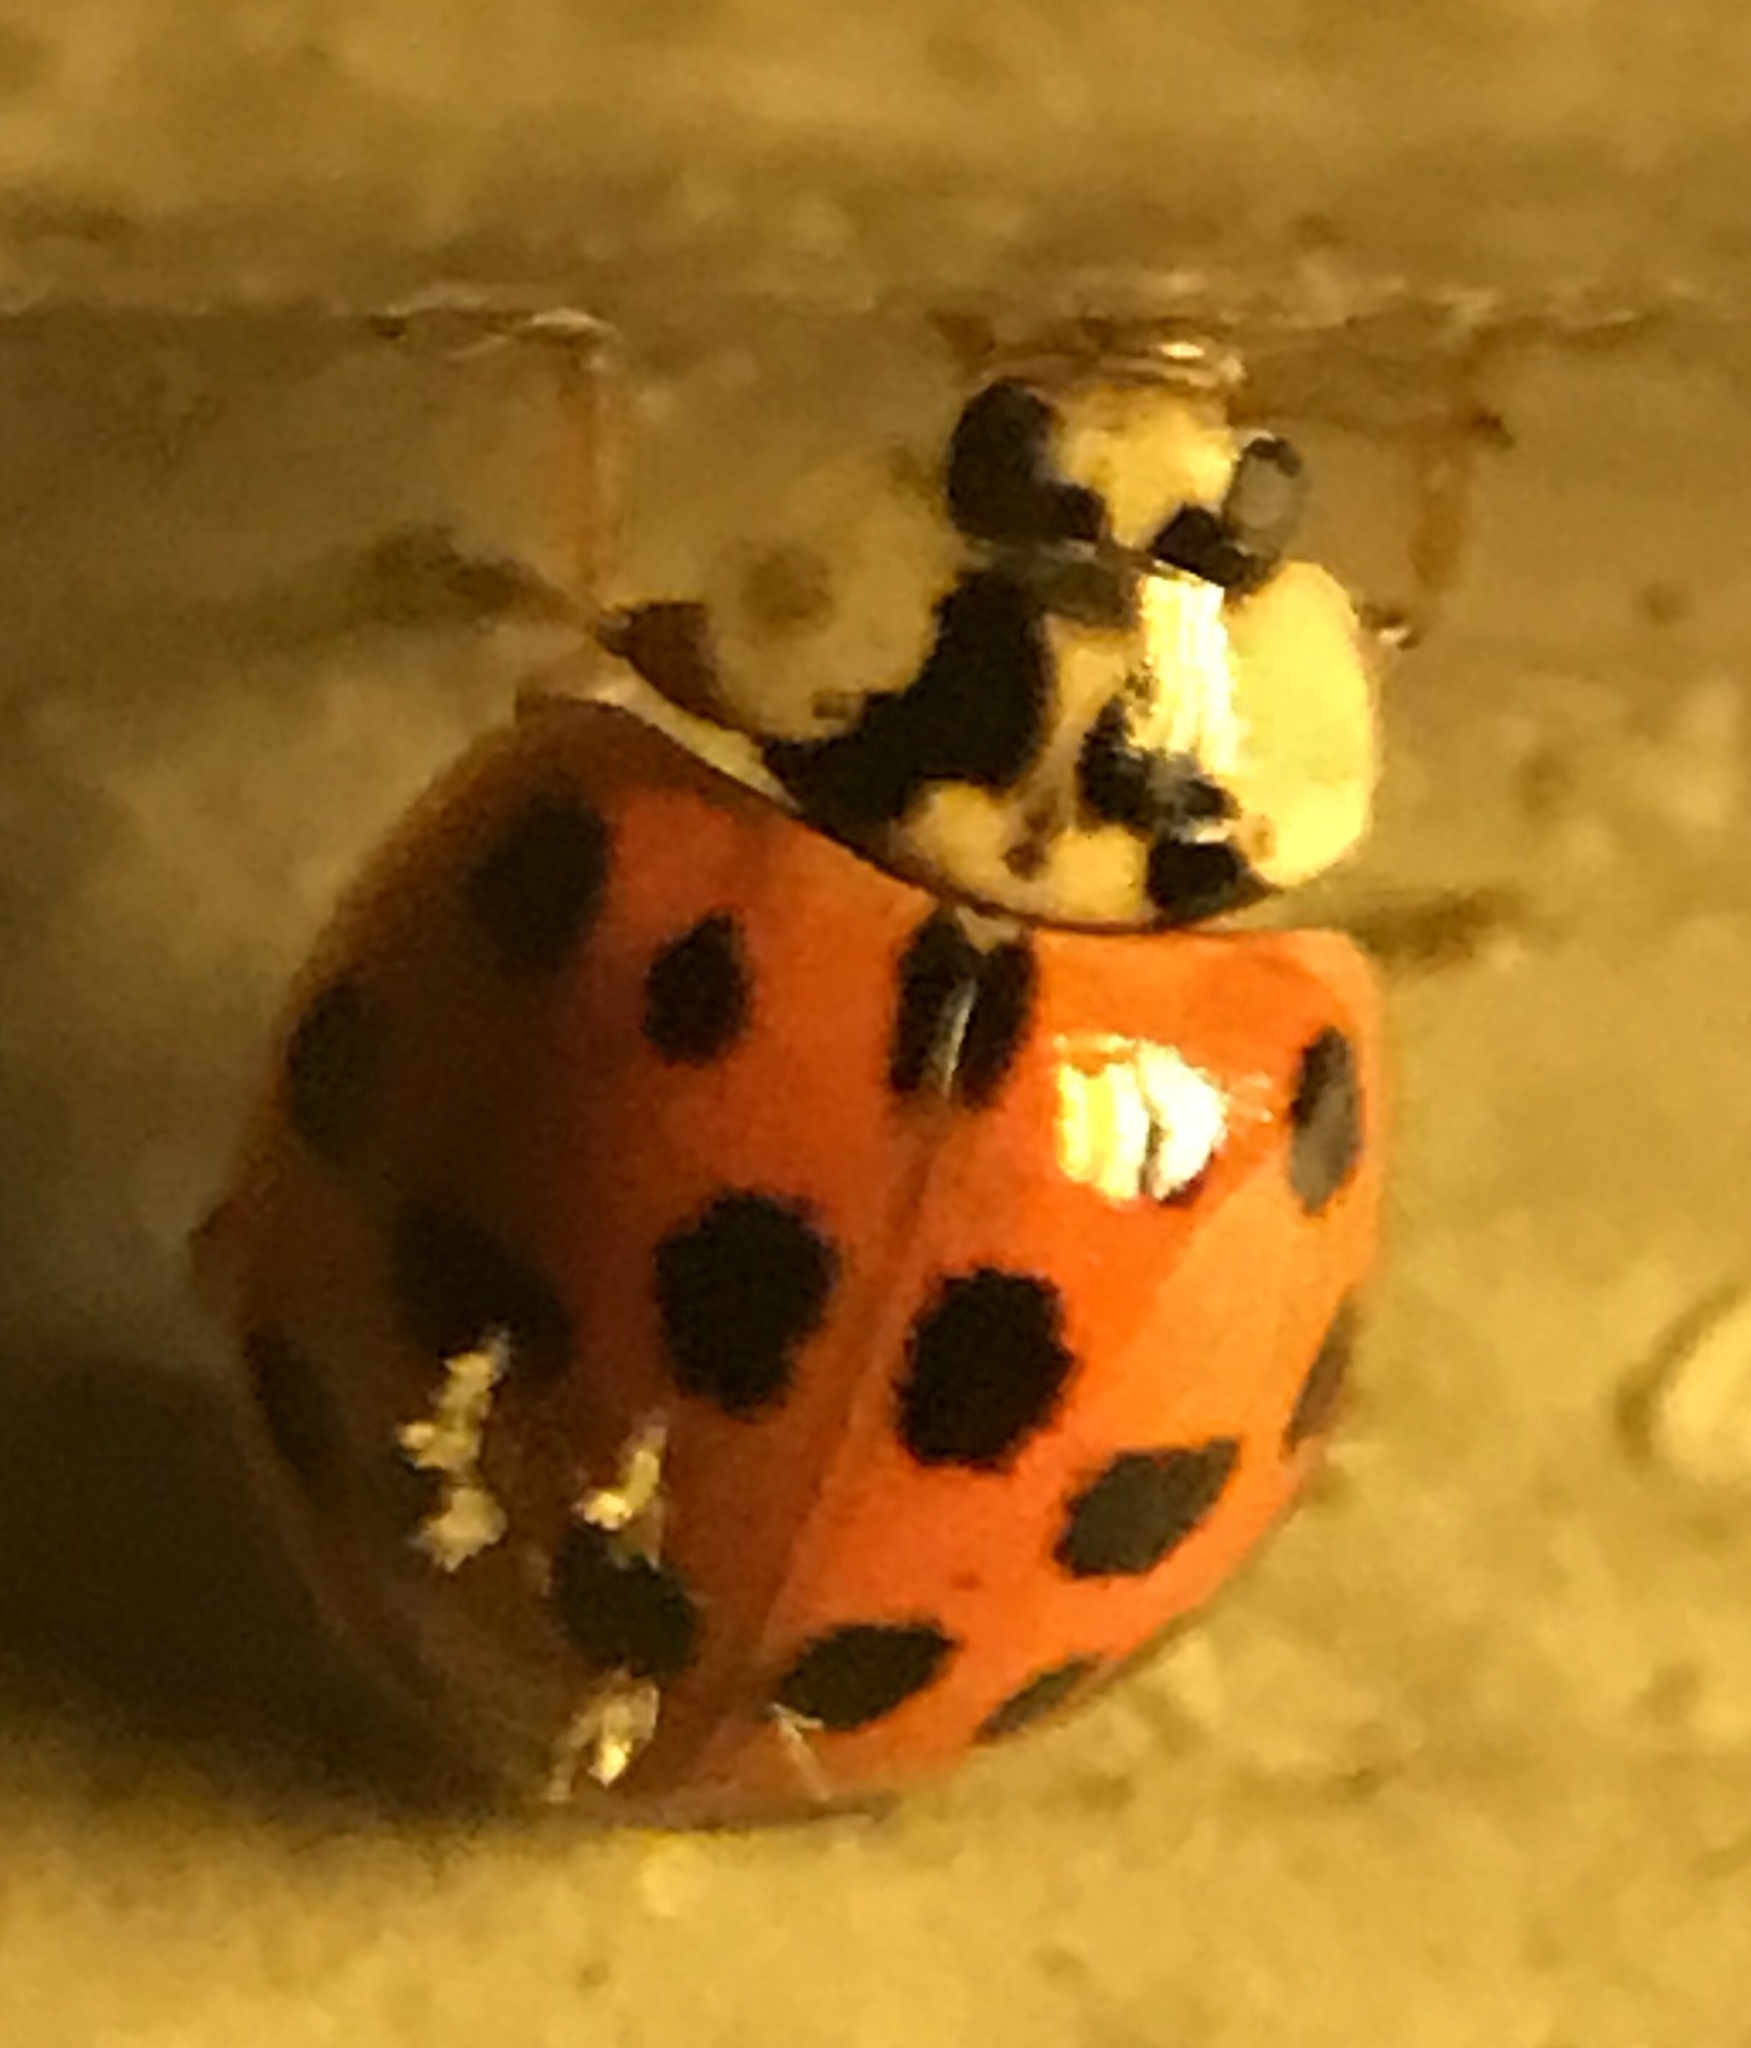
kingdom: Animalia
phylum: Arthropoda
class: Insecta
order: Coleoptera
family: Coccinellidae
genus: Harmonia
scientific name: Harmonia axyridis
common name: Harlequin ladybird
